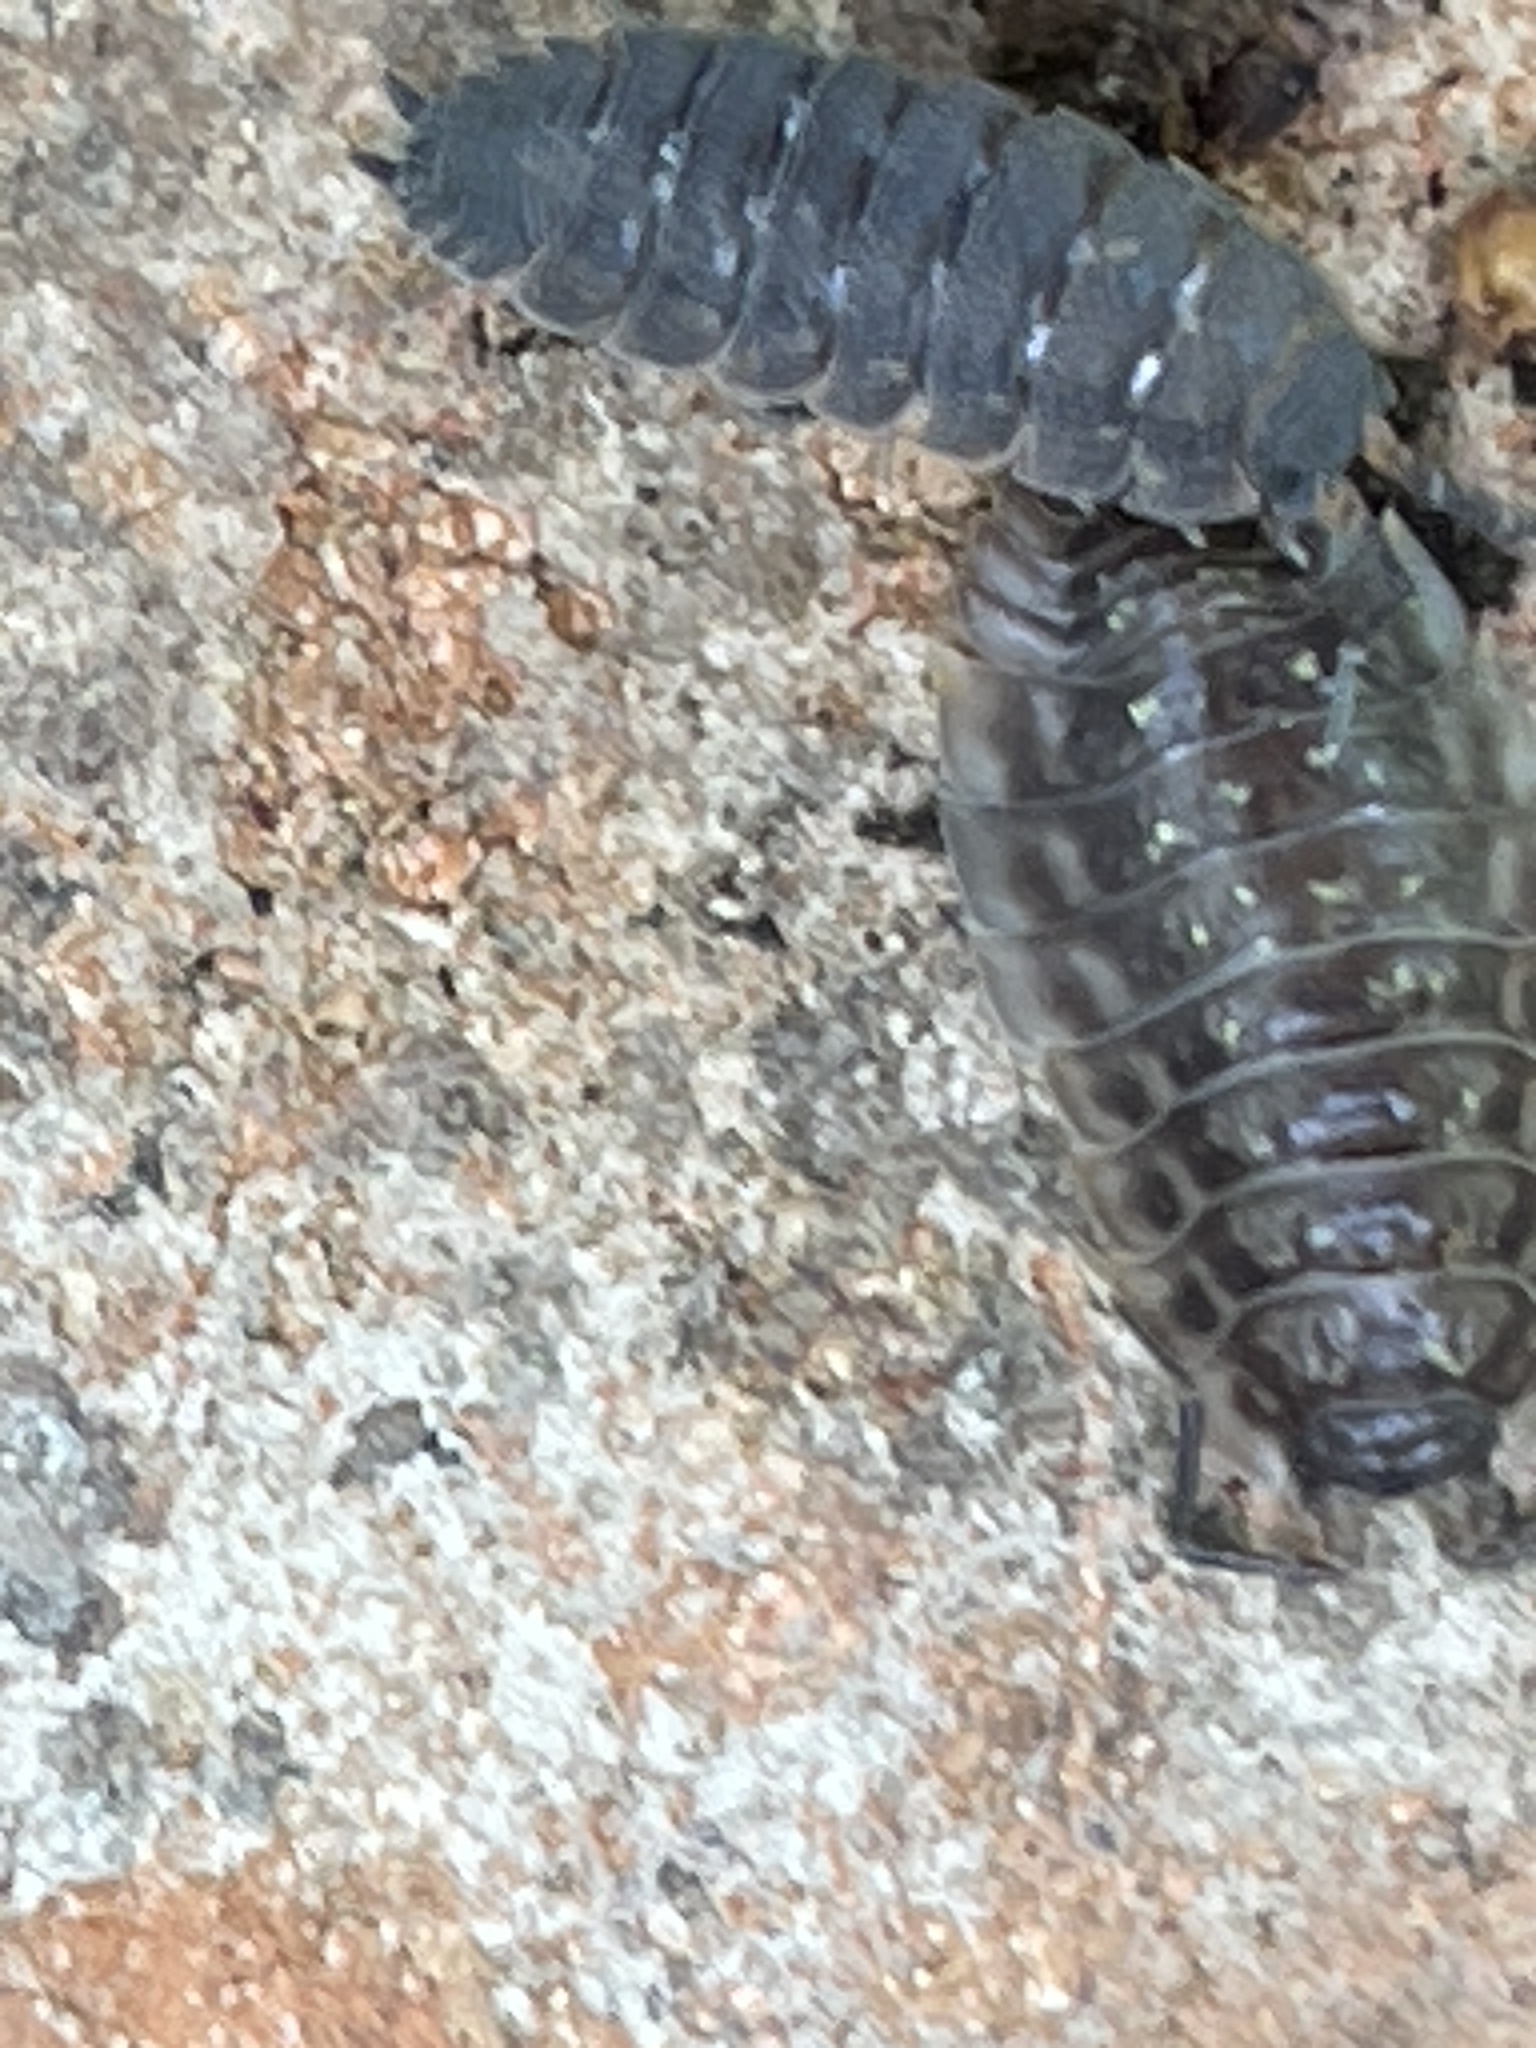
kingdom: Animalia
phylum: Arthropoda
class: Malacostraca
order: Isopoda
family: Oniscidae
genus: Oniscus
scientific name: Oniscus asellus
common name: Common shiny woodlouse
